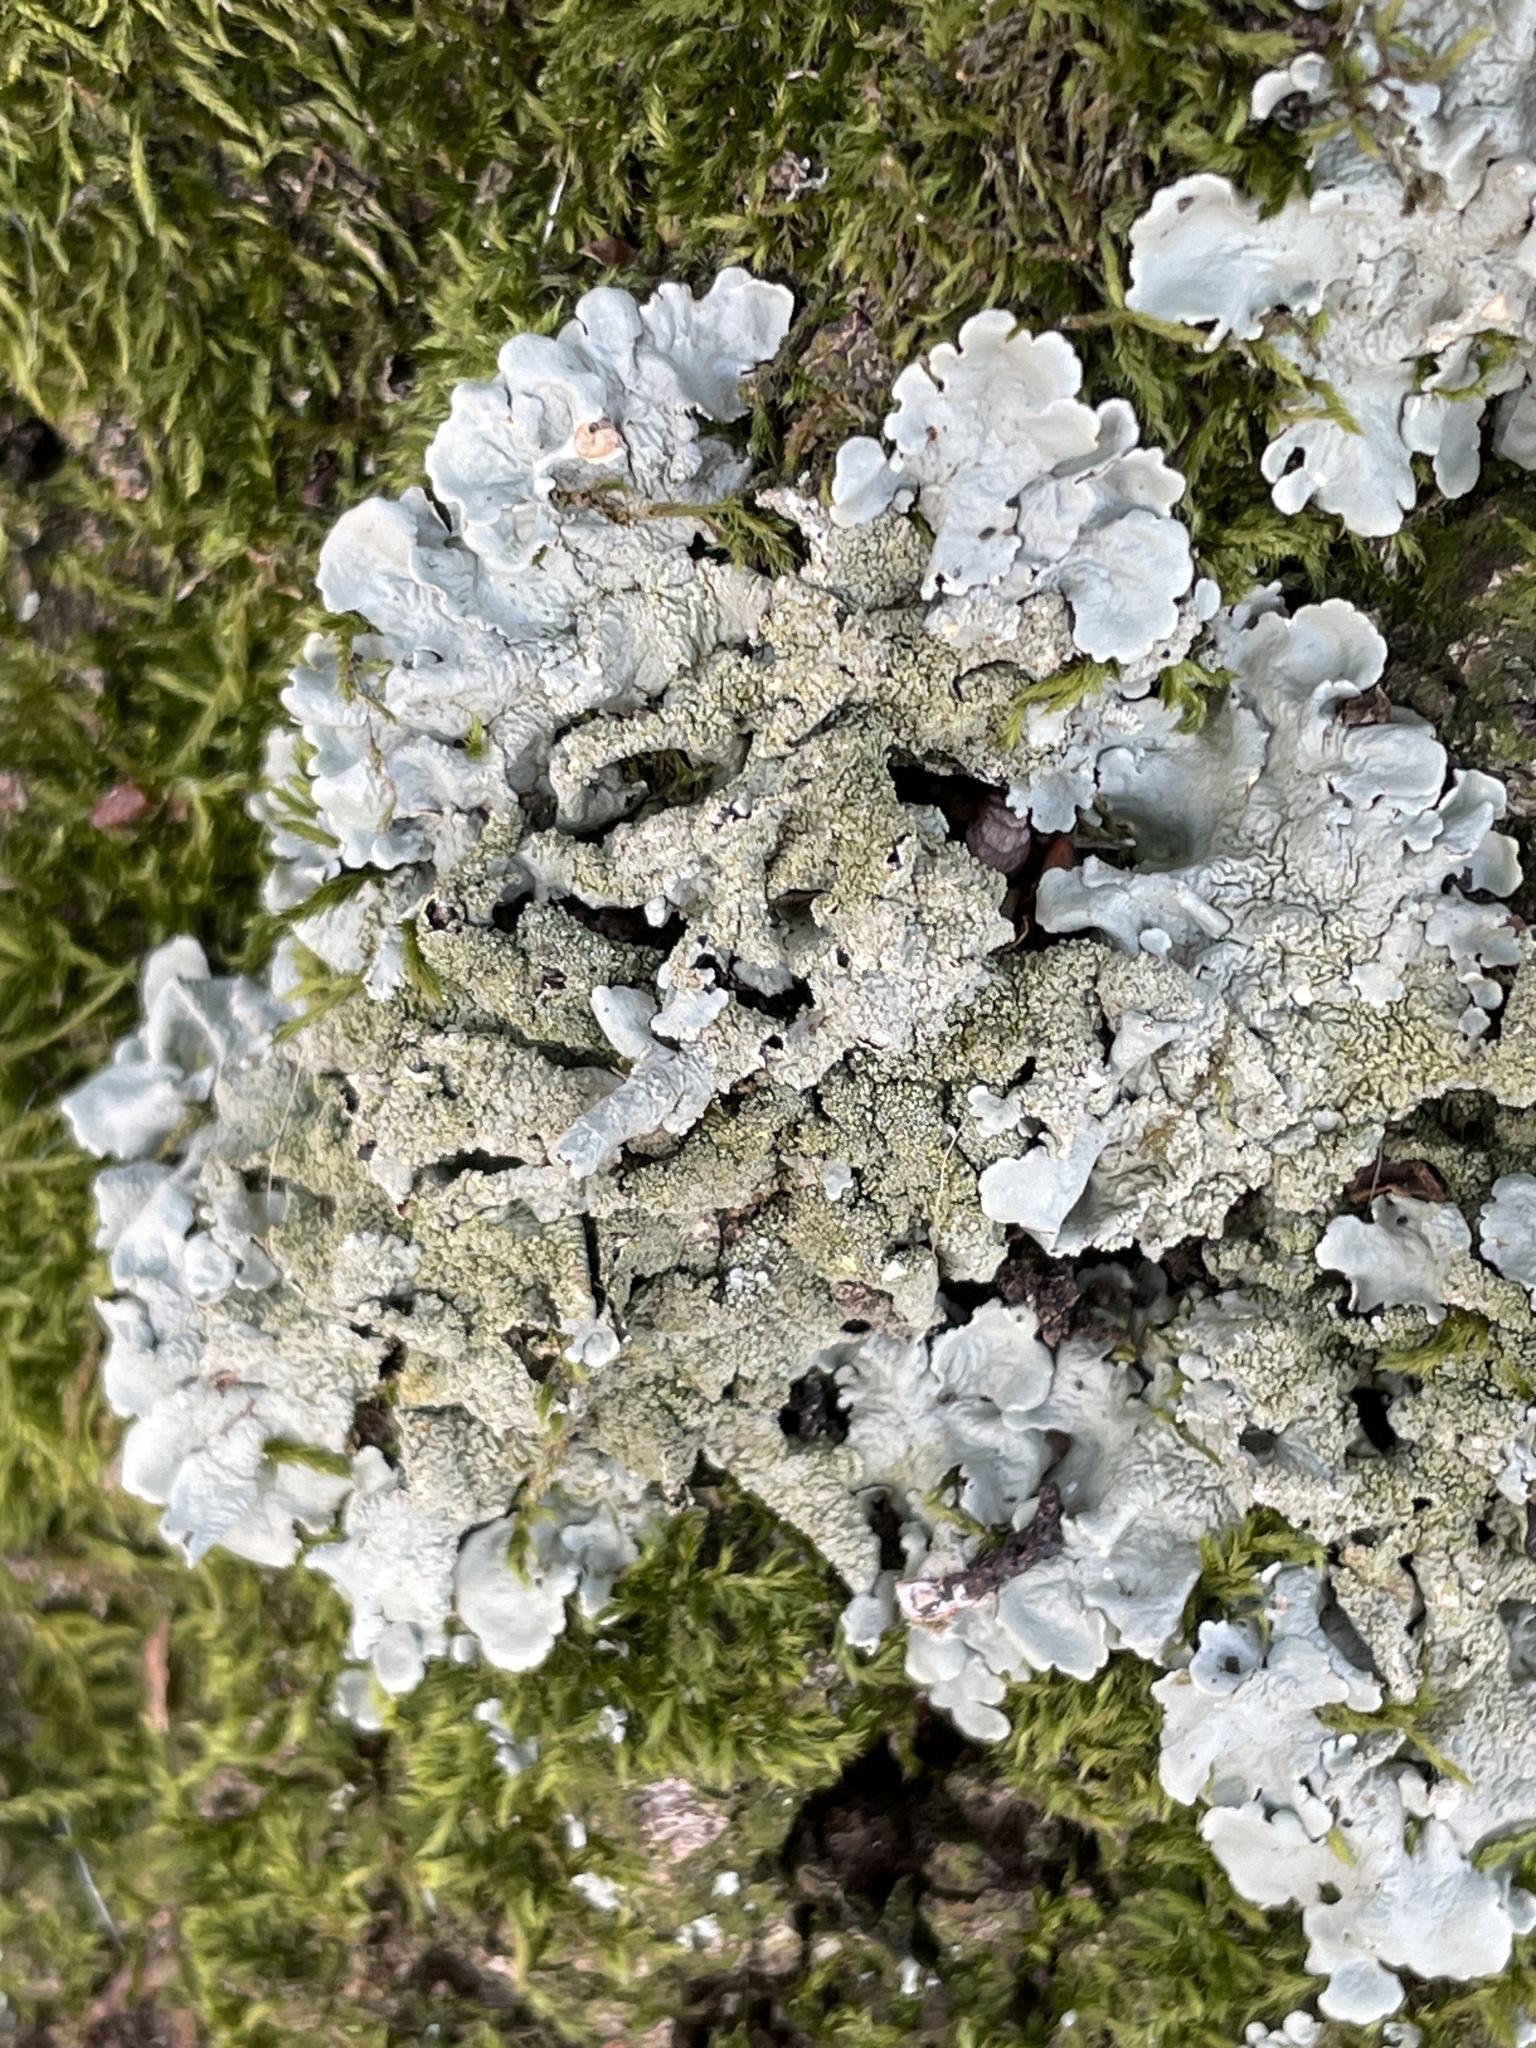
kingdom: Fungi
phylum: Ascomycota
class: Lecanoromycetes
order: Lecanorales
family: Parmeliaceae
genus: Flavoparmelia
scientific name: Flavoparmelia caperata
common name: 40-mile per hour lichen
